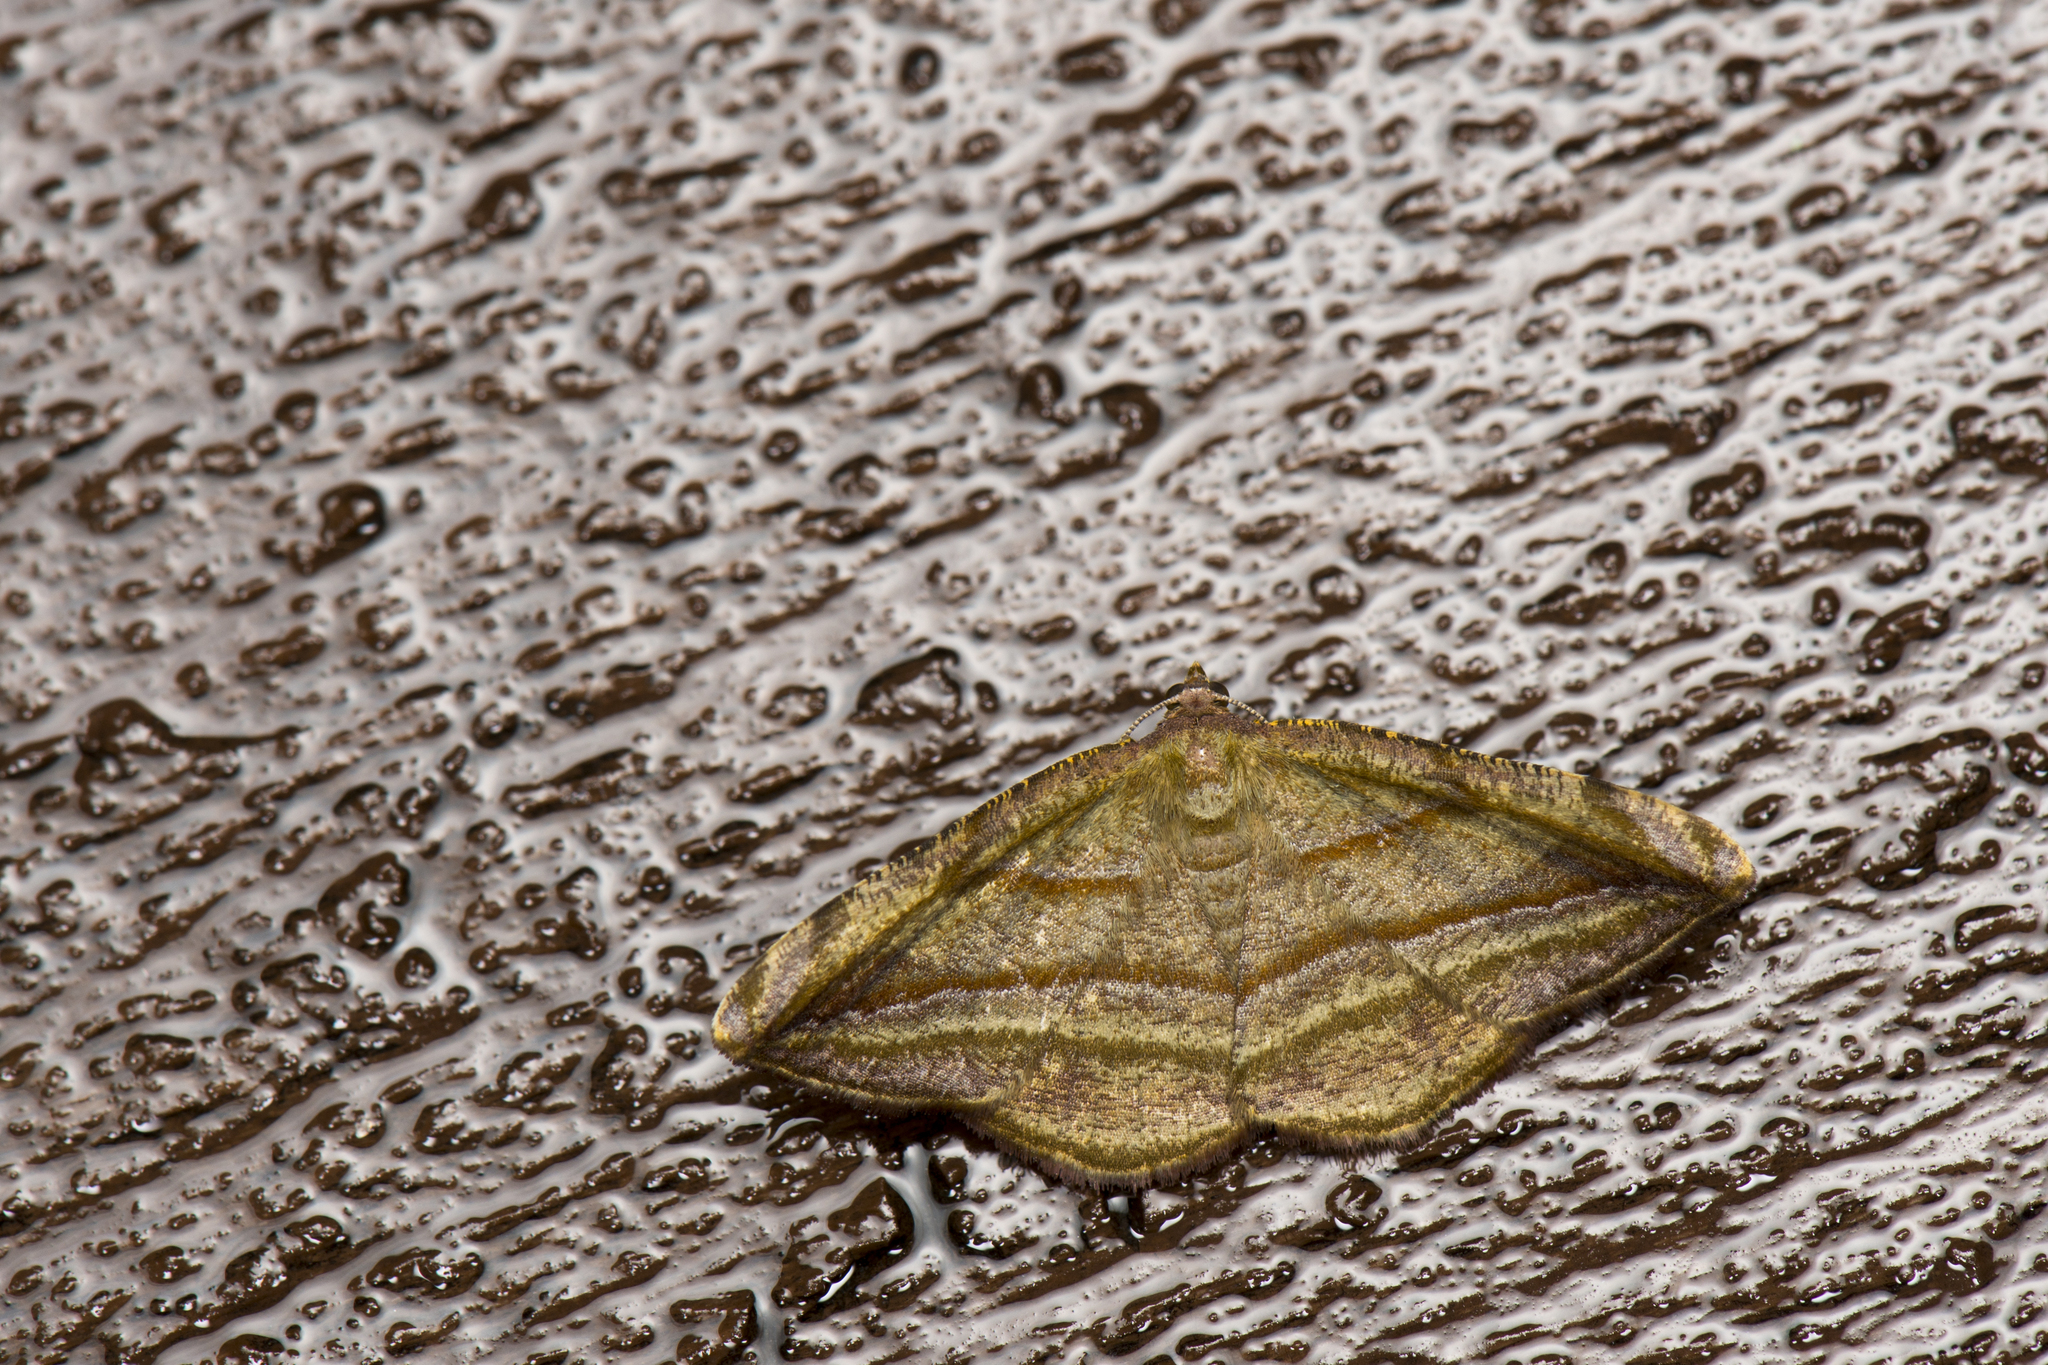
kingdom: Animalia
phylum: Arthropoda
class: Insecta
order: Lepidoptera
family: Geometridae
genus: Loxotephria
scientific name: Loxotephria olivacea
